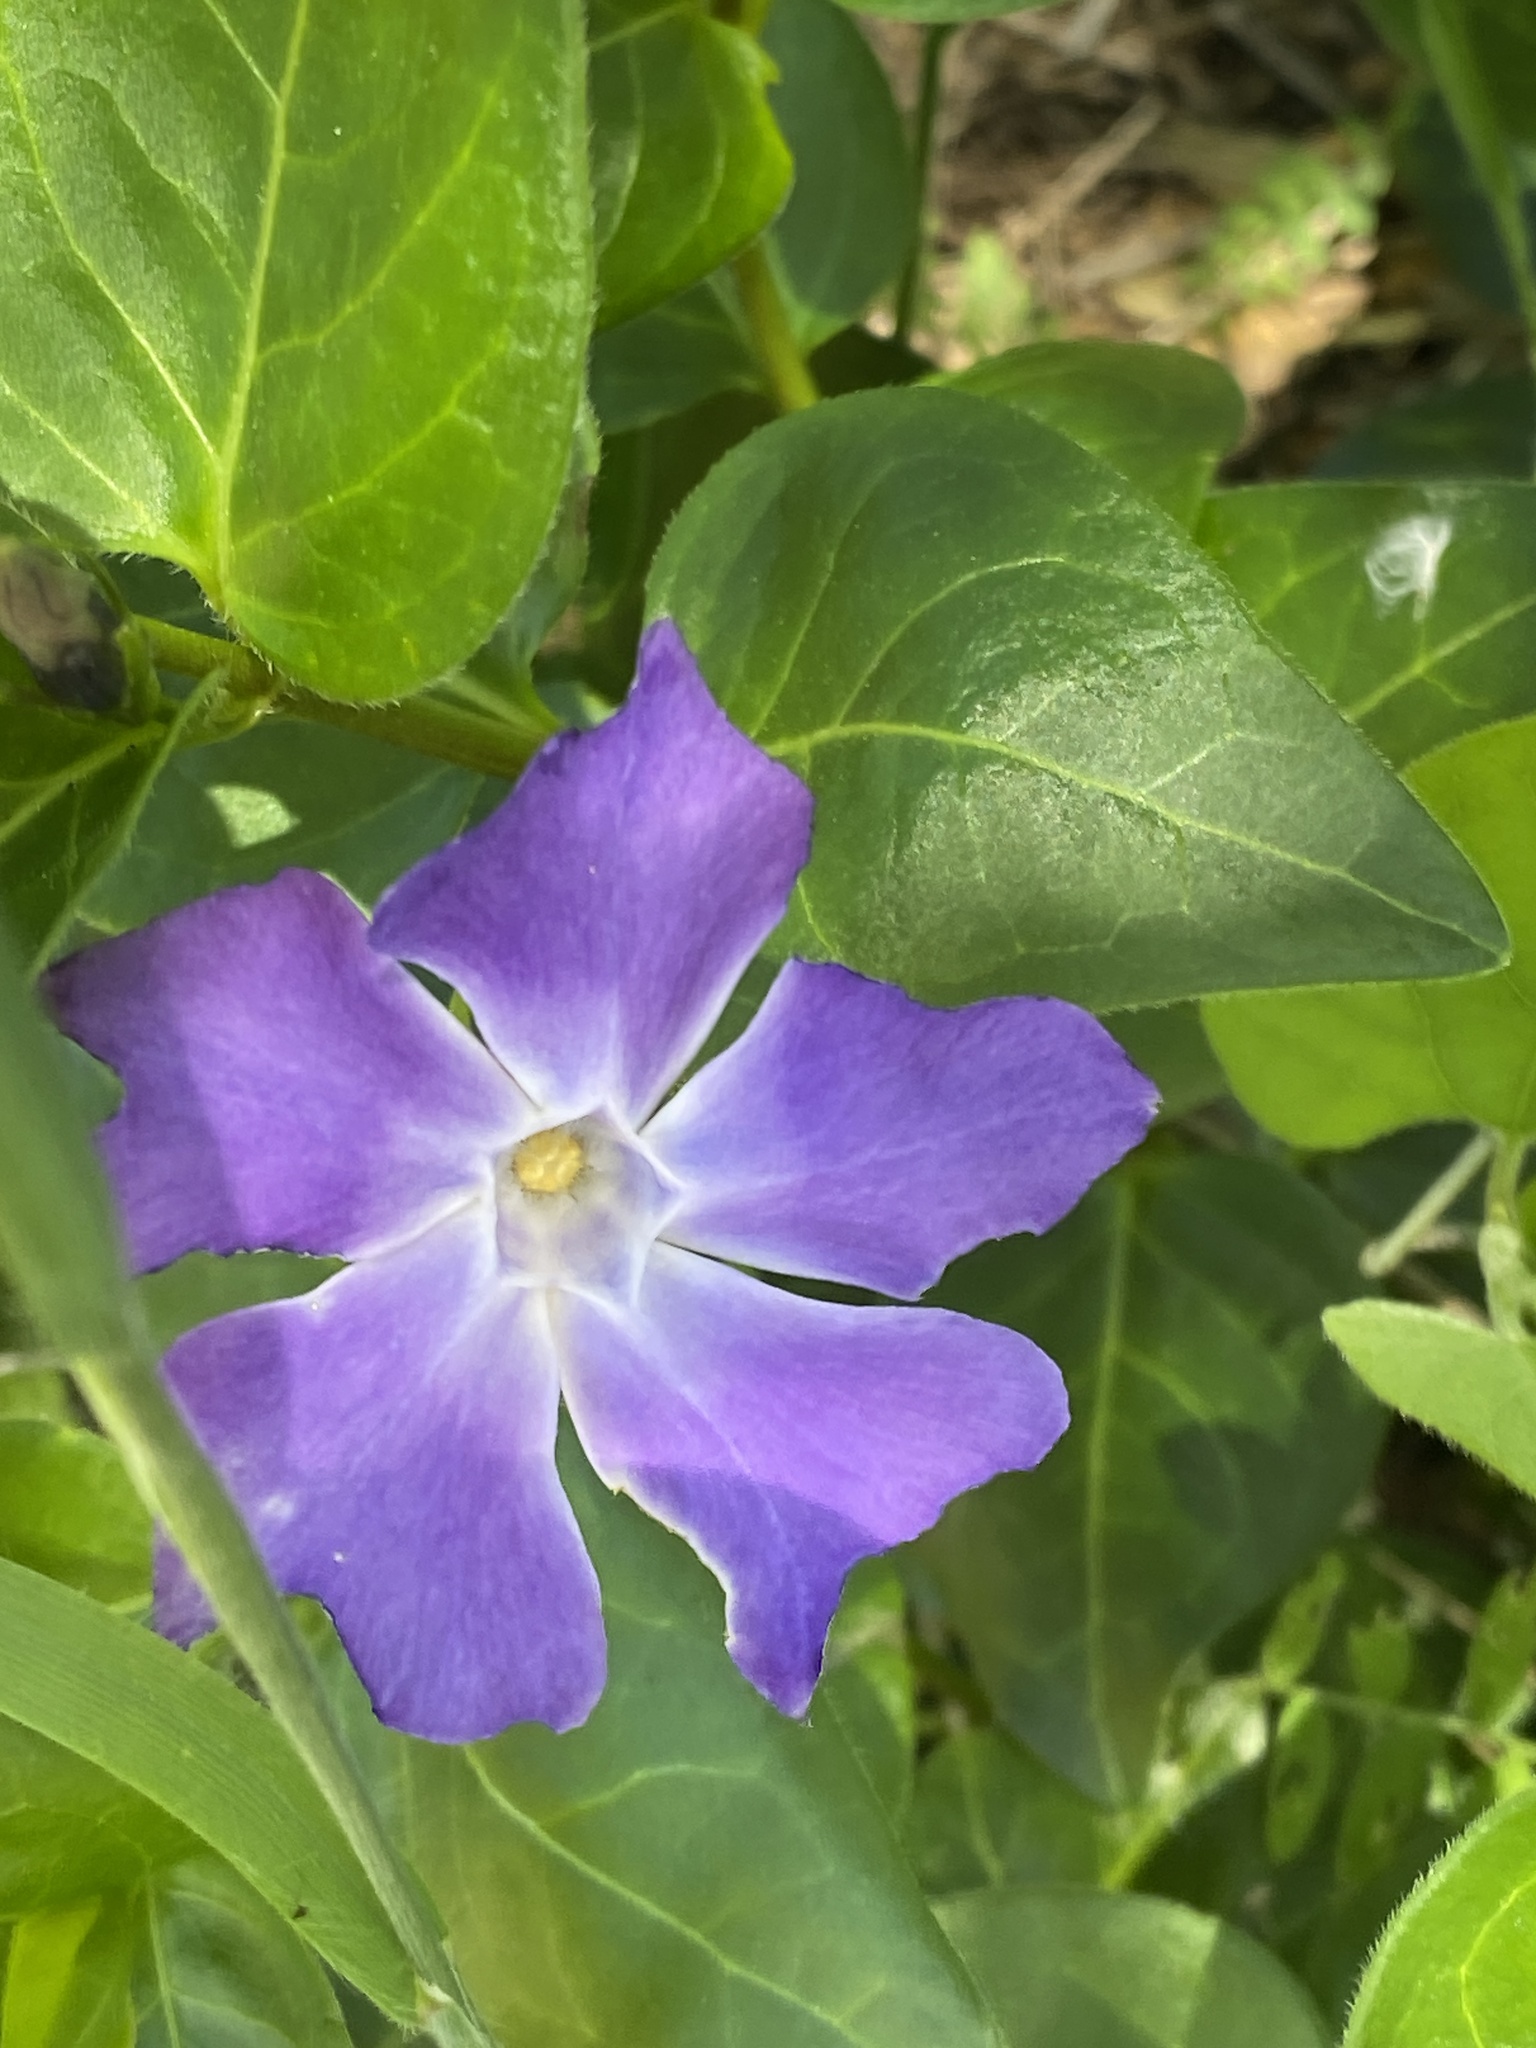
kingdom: Plantae
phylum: Tracheophyta
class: Magnoliopsida
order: Gentianales
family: Apocynaceae
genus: Vinca
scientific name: Vinca major
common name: Greater periwinkle
